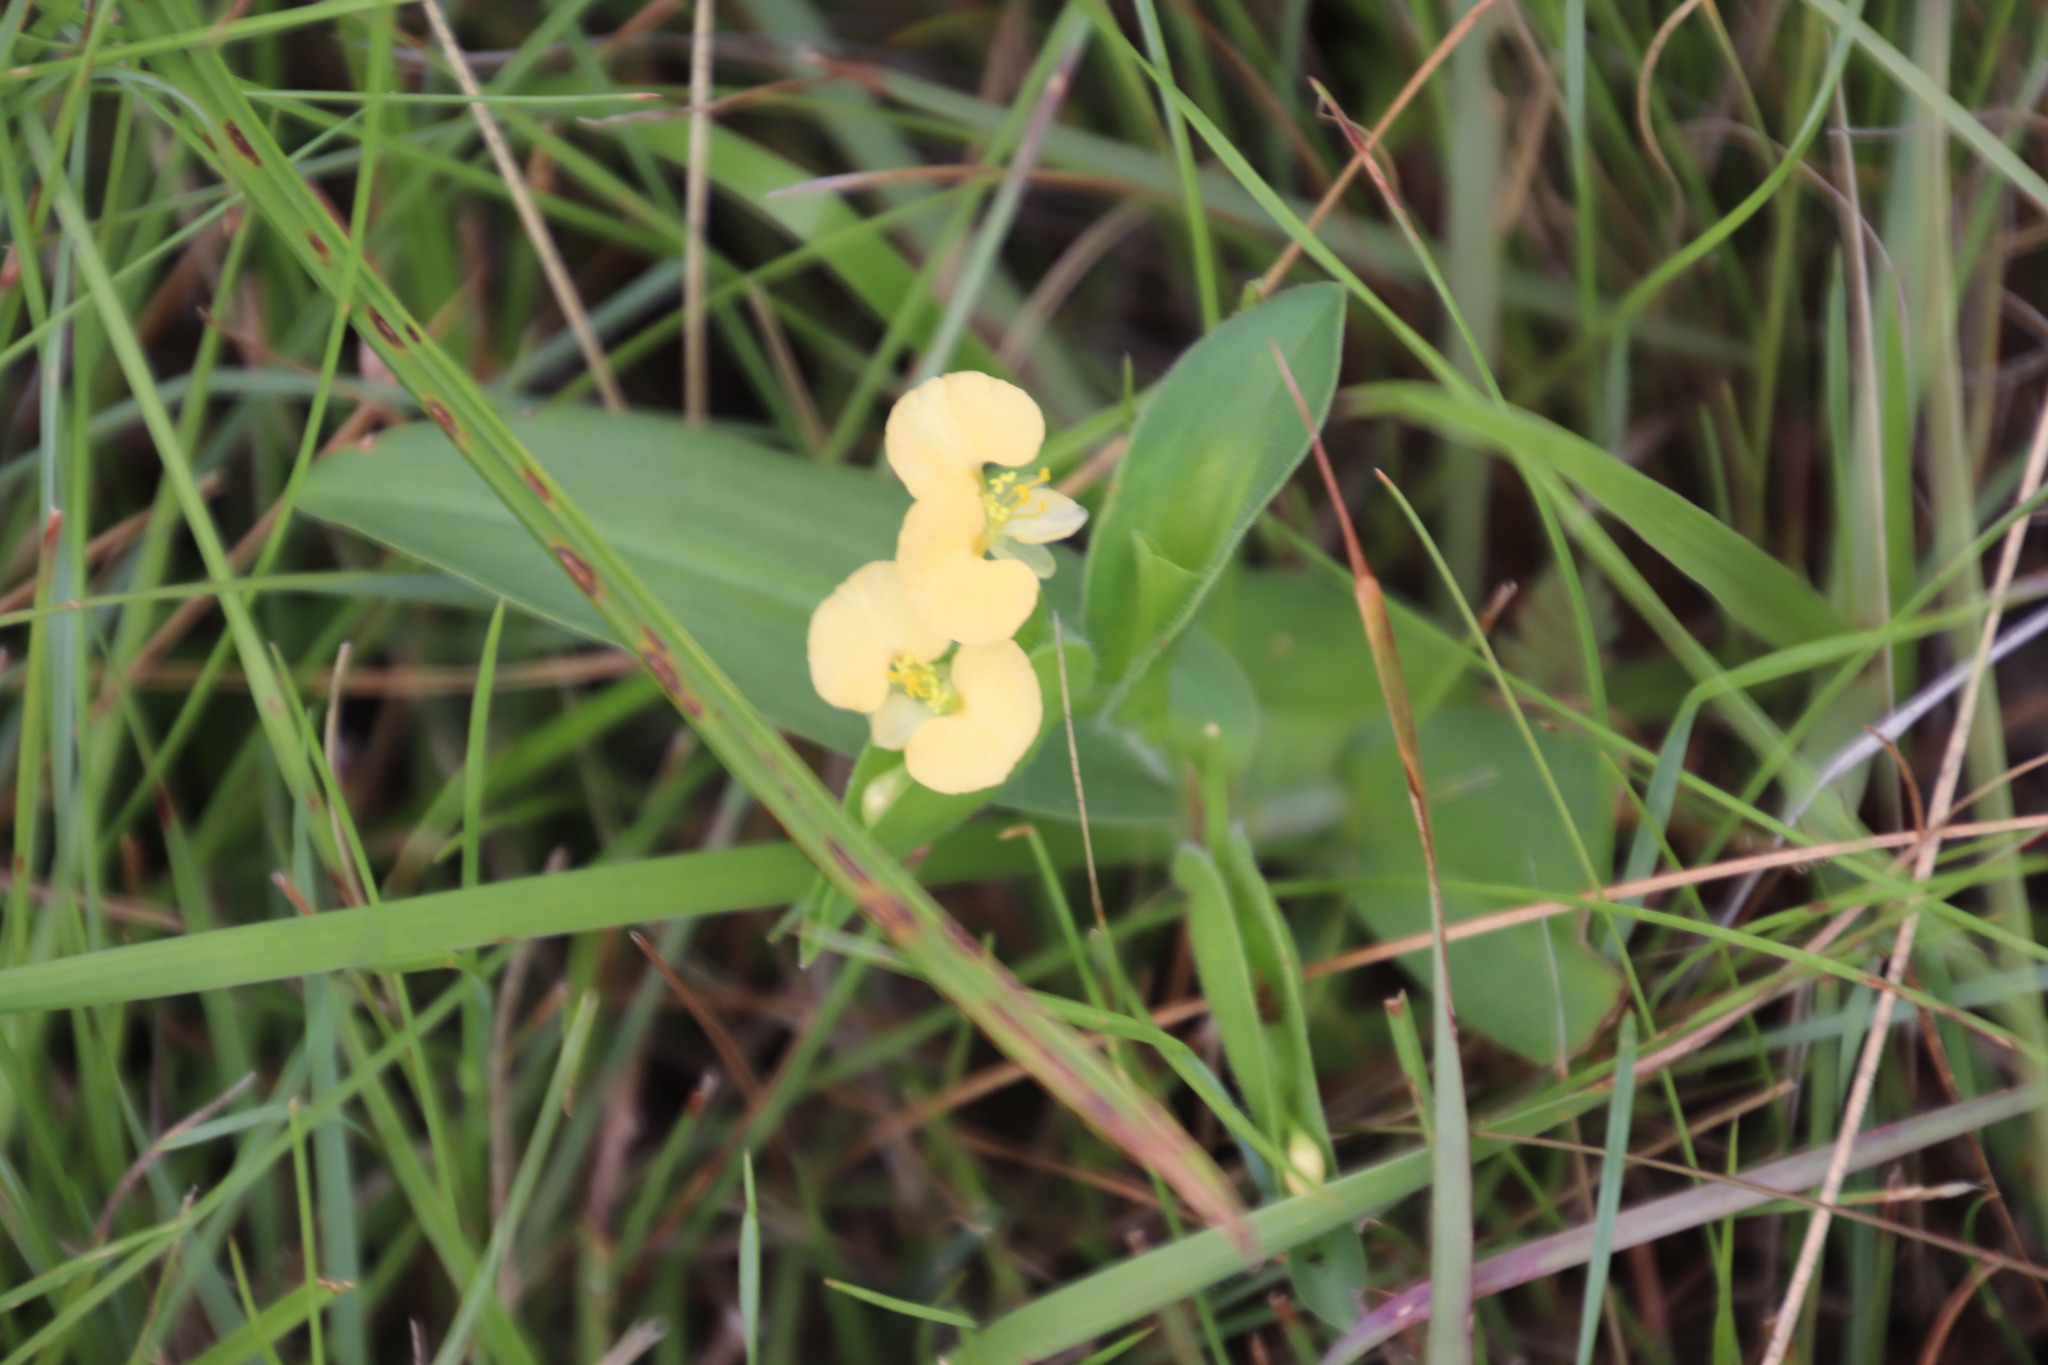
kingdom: Plantae
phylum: Tracheophyta
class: Liliopsida
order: Commelinales
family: Commelinaceae
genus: Commelina
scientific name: Commelina africana
